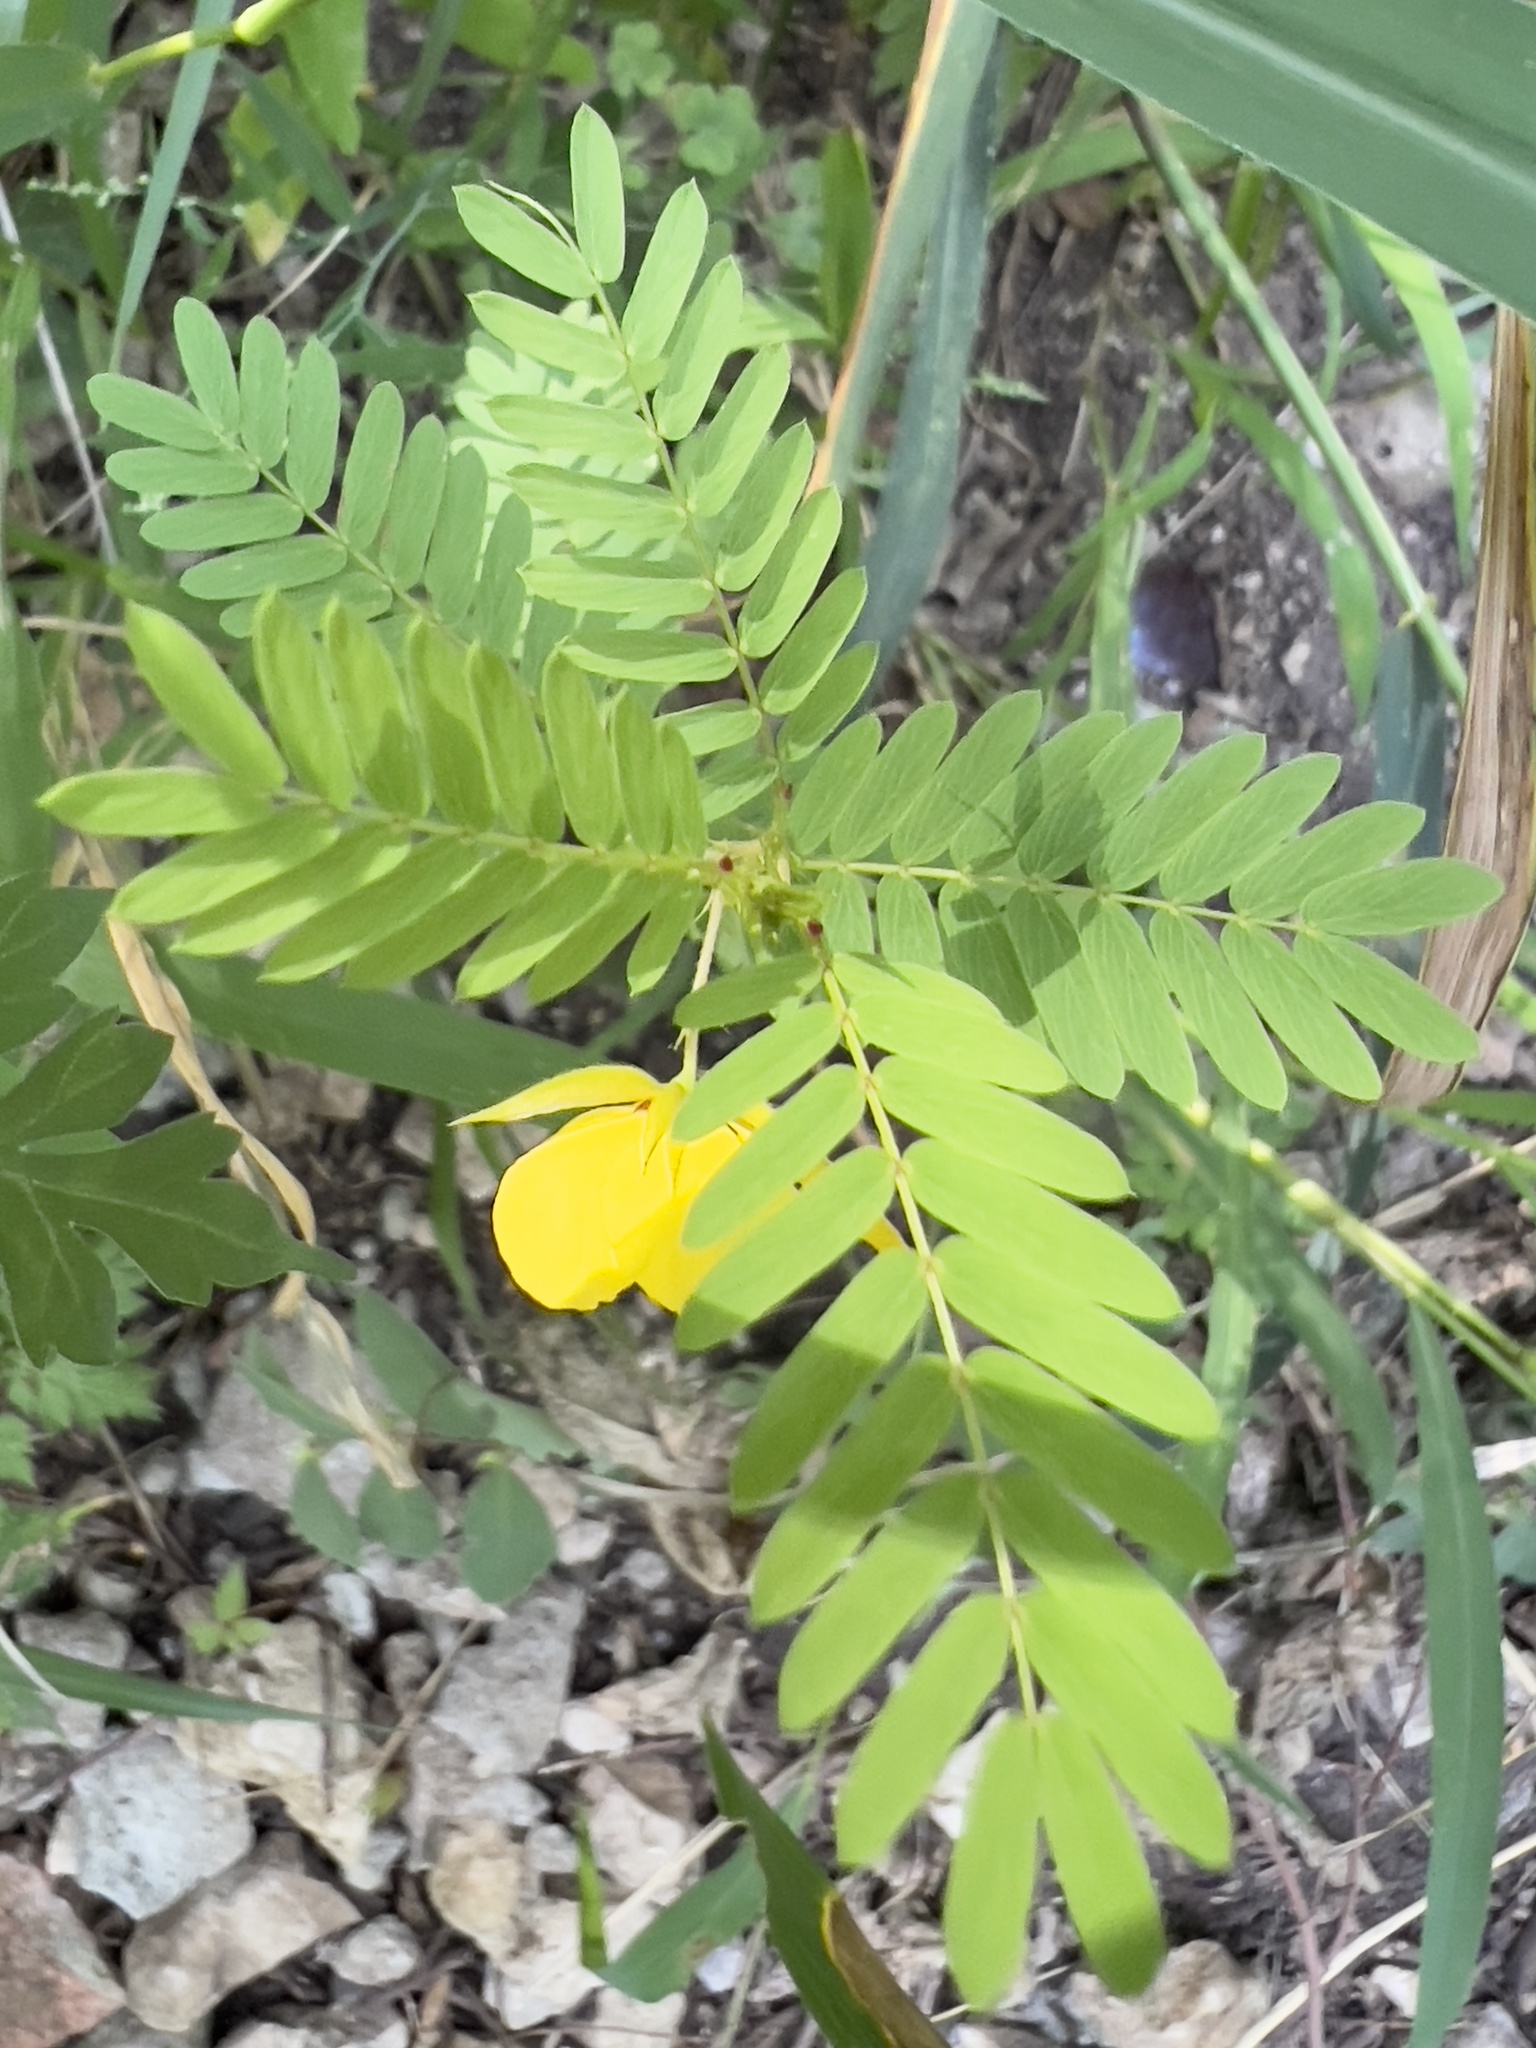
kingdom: Plantae
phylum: Tracheophyta
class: Magnoliopsida
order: Fabales
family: Fabaceae
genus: Chamaecrista
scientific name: Chamaecrista fasciculata
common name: Golden cassia
